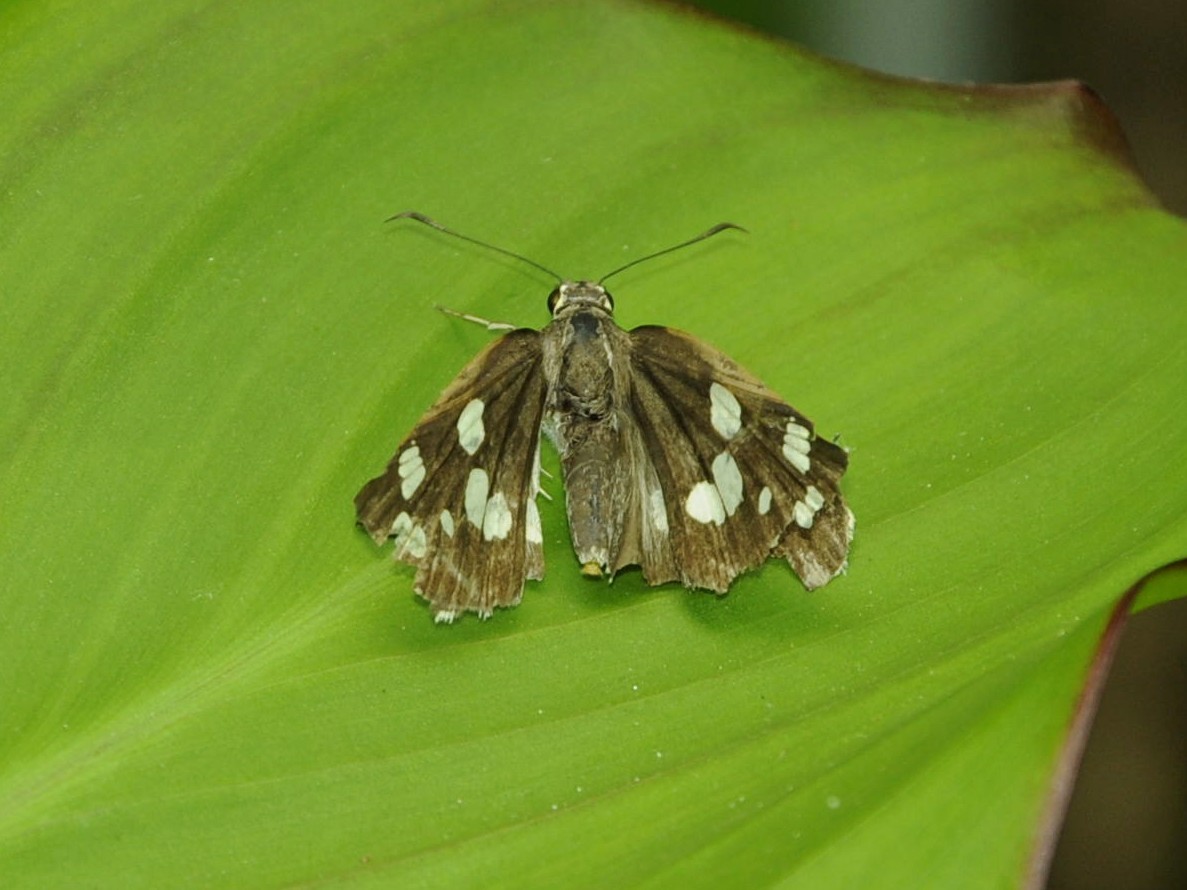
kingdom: Animalia
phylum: Arthropoda
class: Insecta
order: Lepidoptera
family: Hesperiidae
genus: Udaspes
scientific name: Udaspes folus
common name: Grass demon
